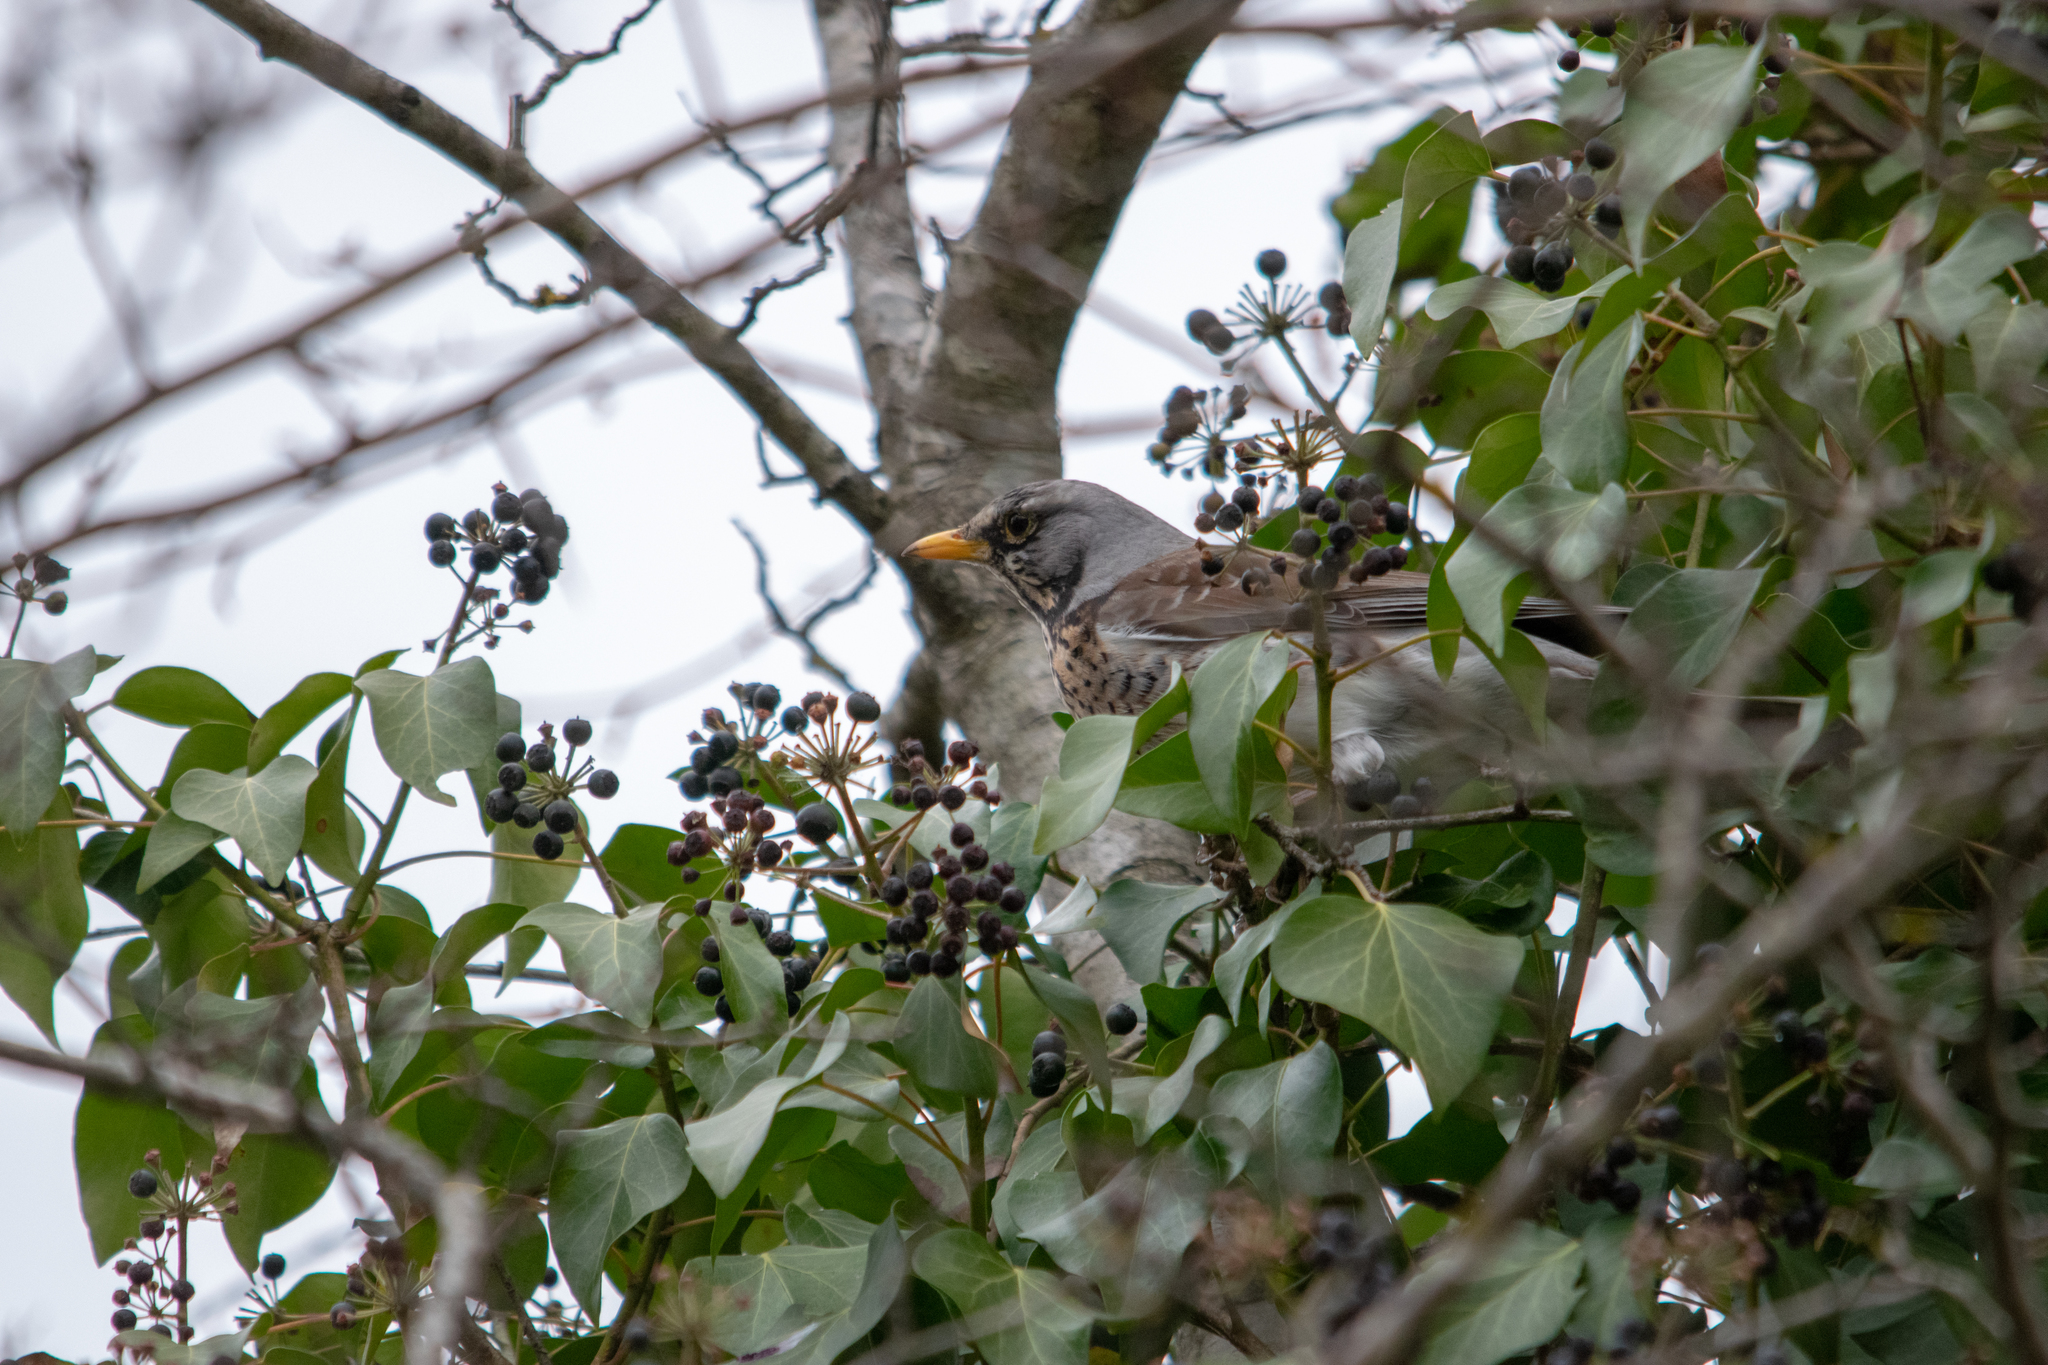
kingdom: Animalia
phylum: Chordata
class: Aves
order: Passeriformes
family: Turdidae
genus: Turdus
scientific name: Turdus pilaris
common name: Fieldfare
